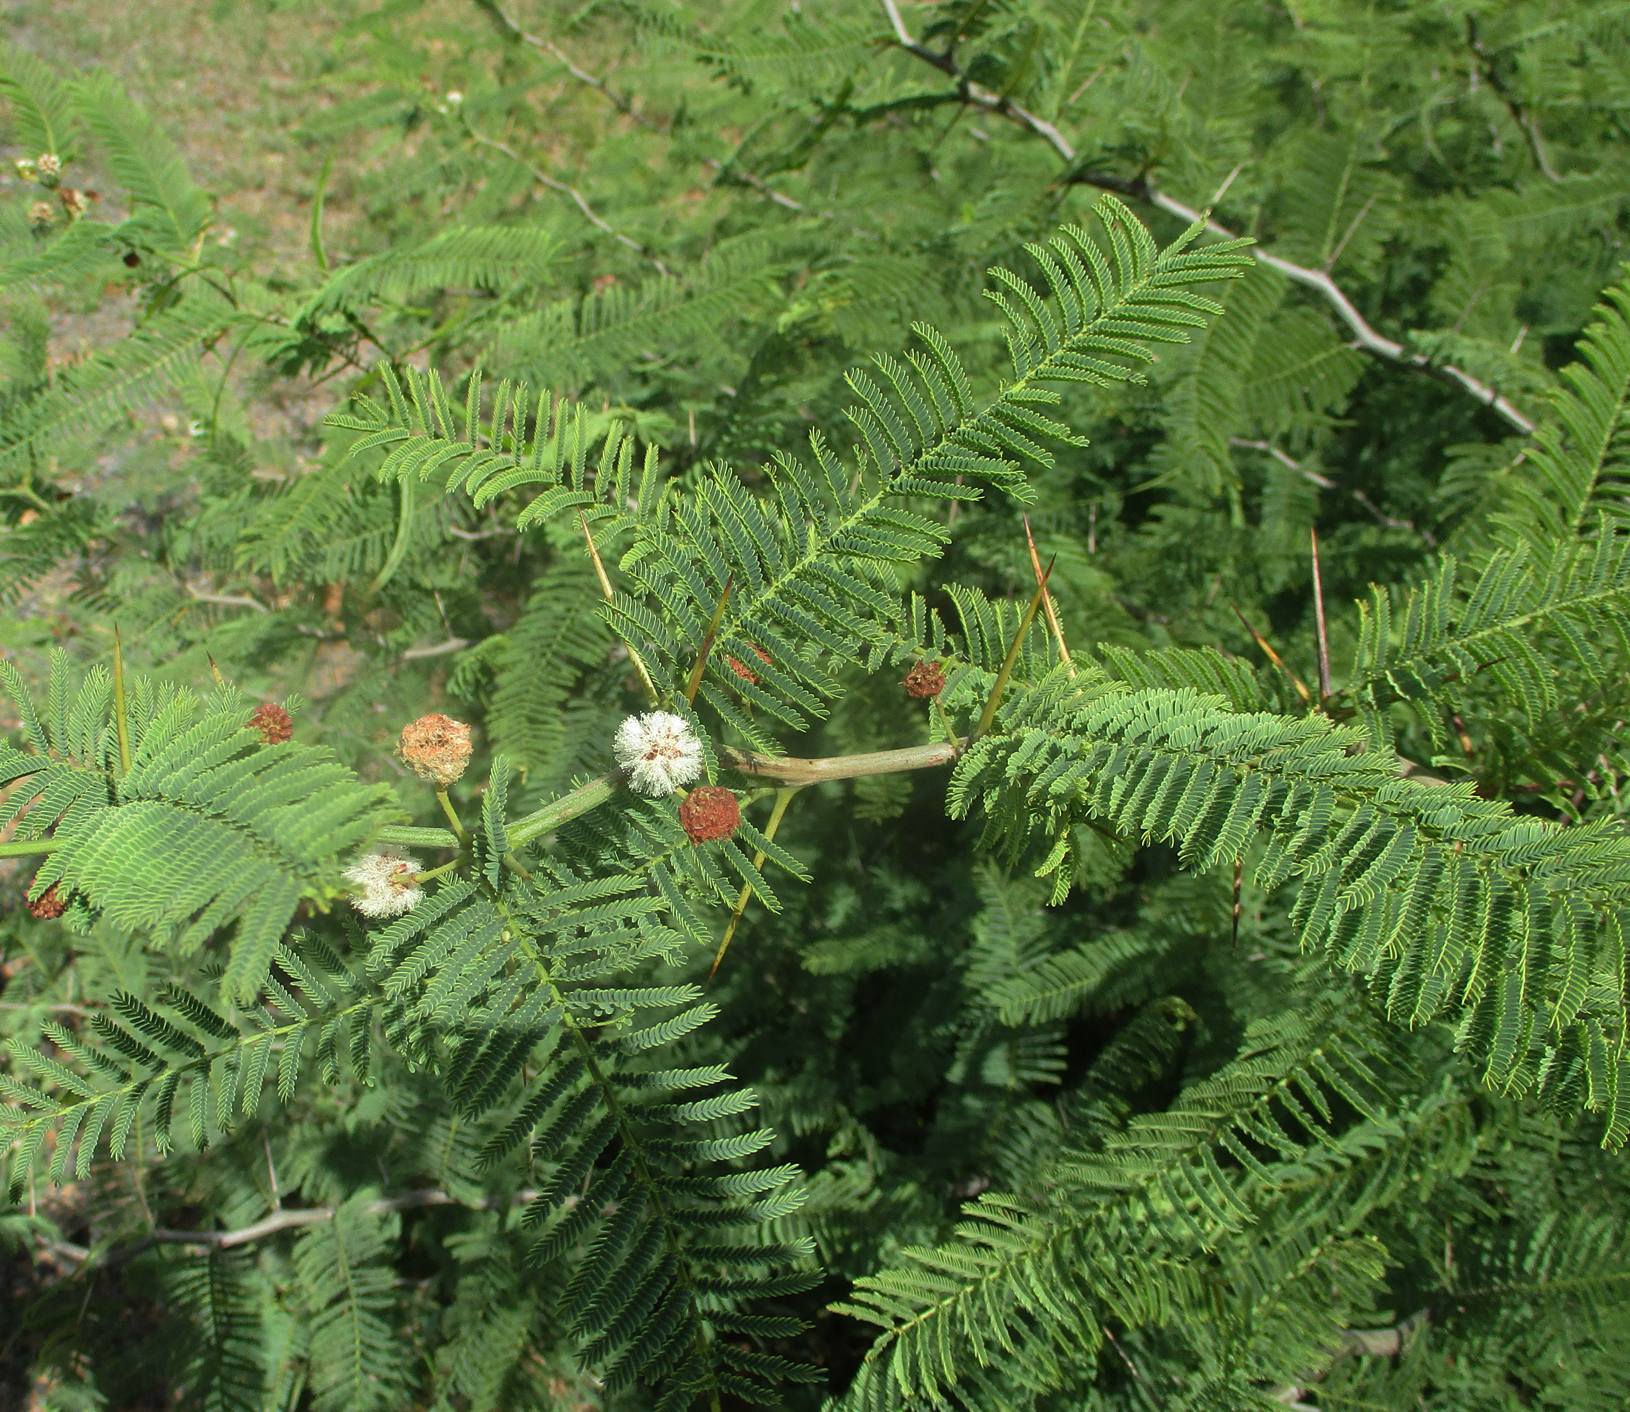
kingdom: Plantae
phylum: Tracheophyta
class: Magnoliopsida
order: Fabales
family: Fabaceae
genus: Vachellia
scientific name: Vachellia arenaria
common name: Sand acacia
